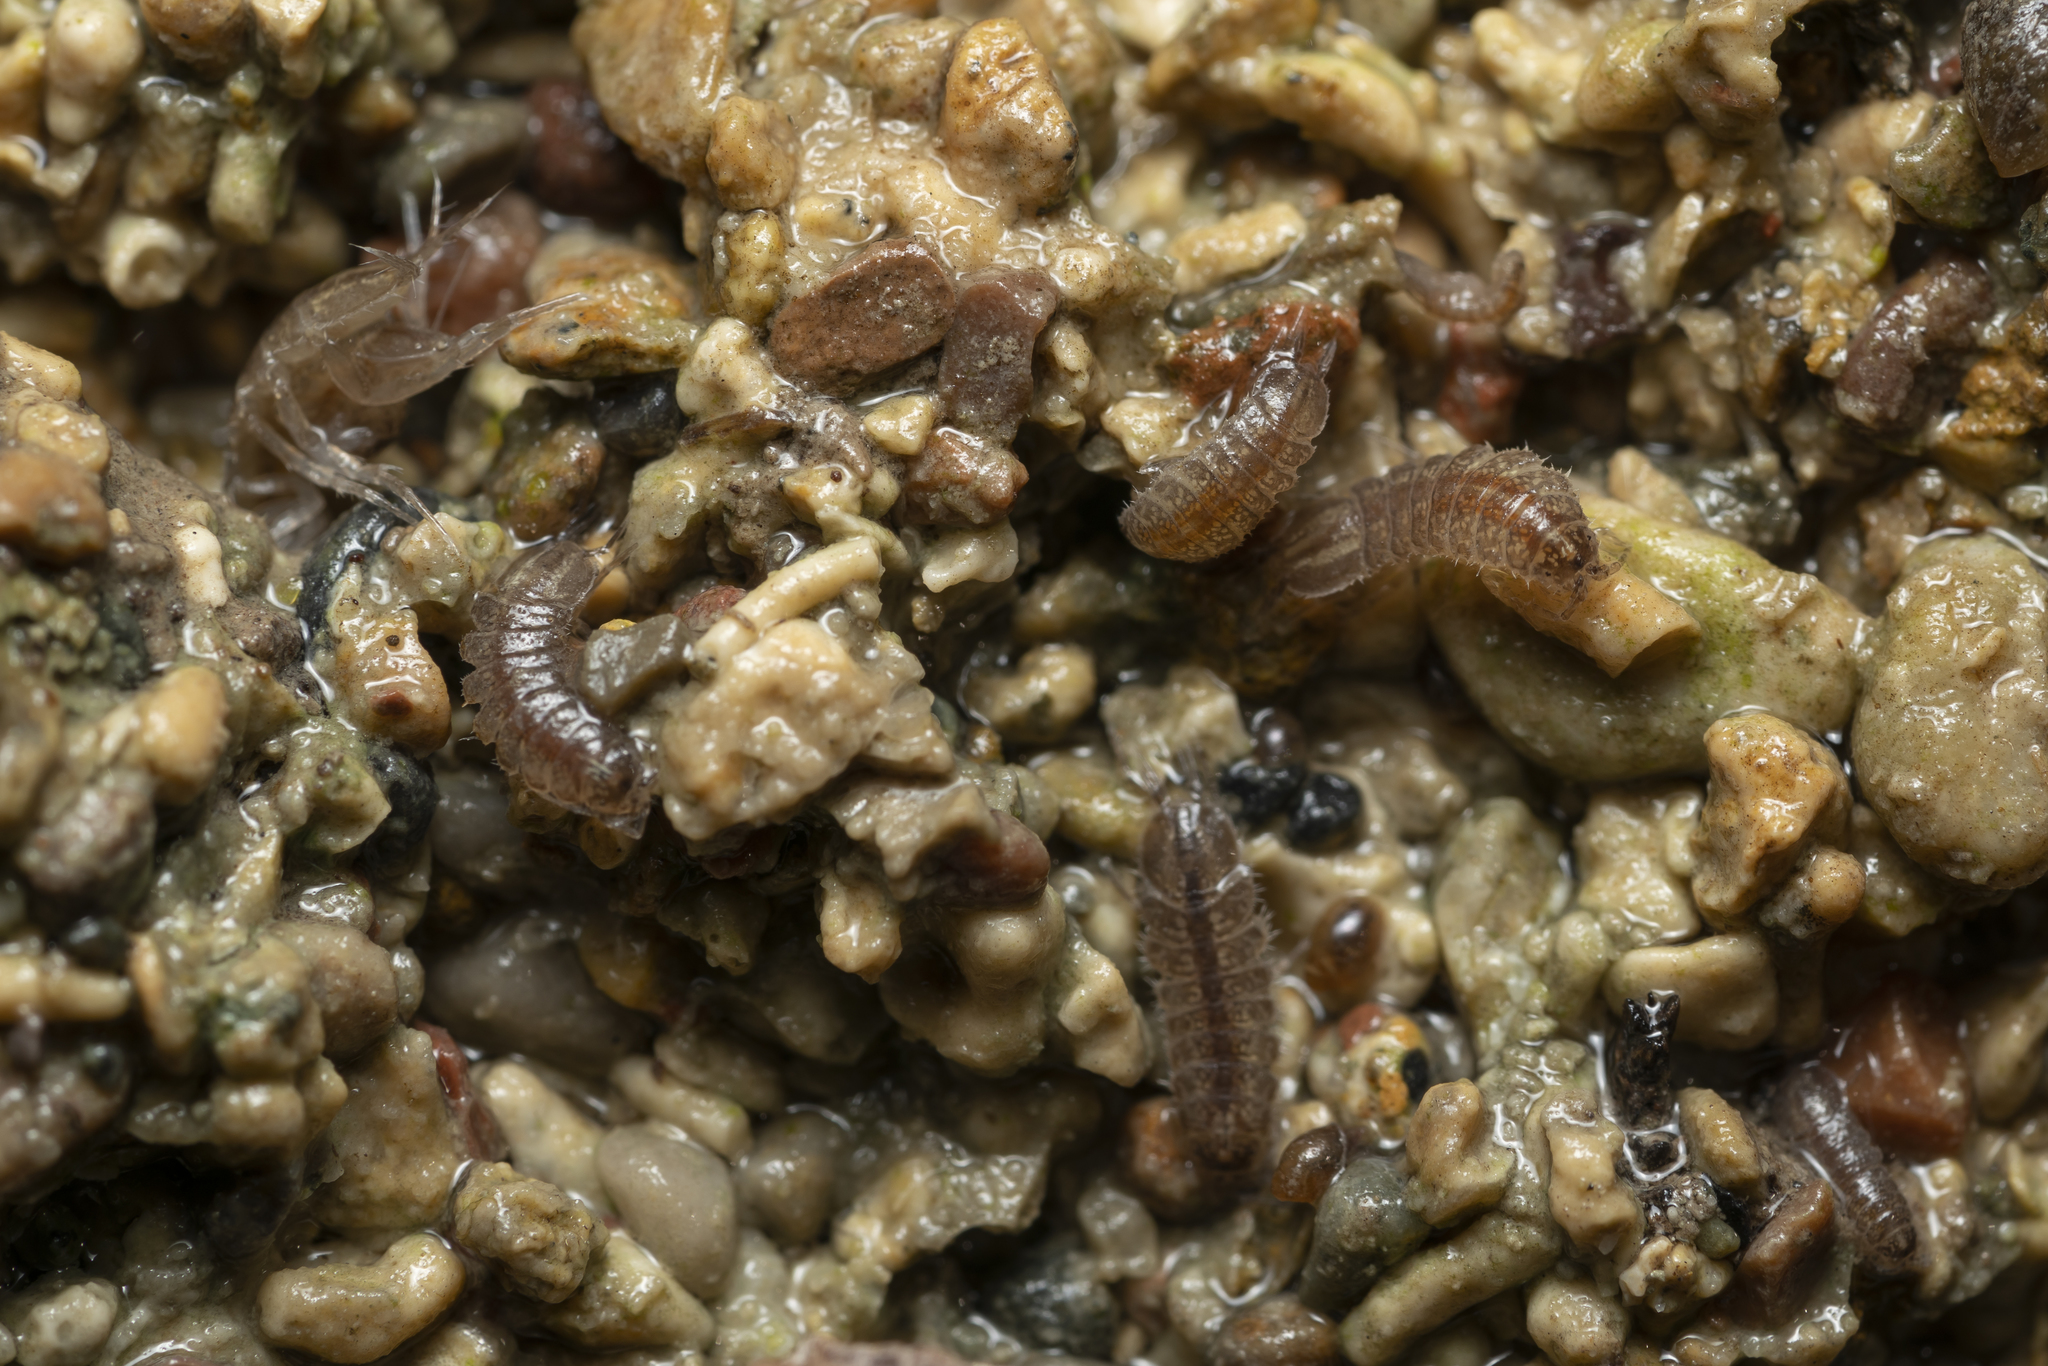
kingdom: Animalia
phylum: Arthropoda
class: Malacostraca
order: Isopoda
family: Asellidae
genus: Proasellus
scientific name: Proasellus coxalis
